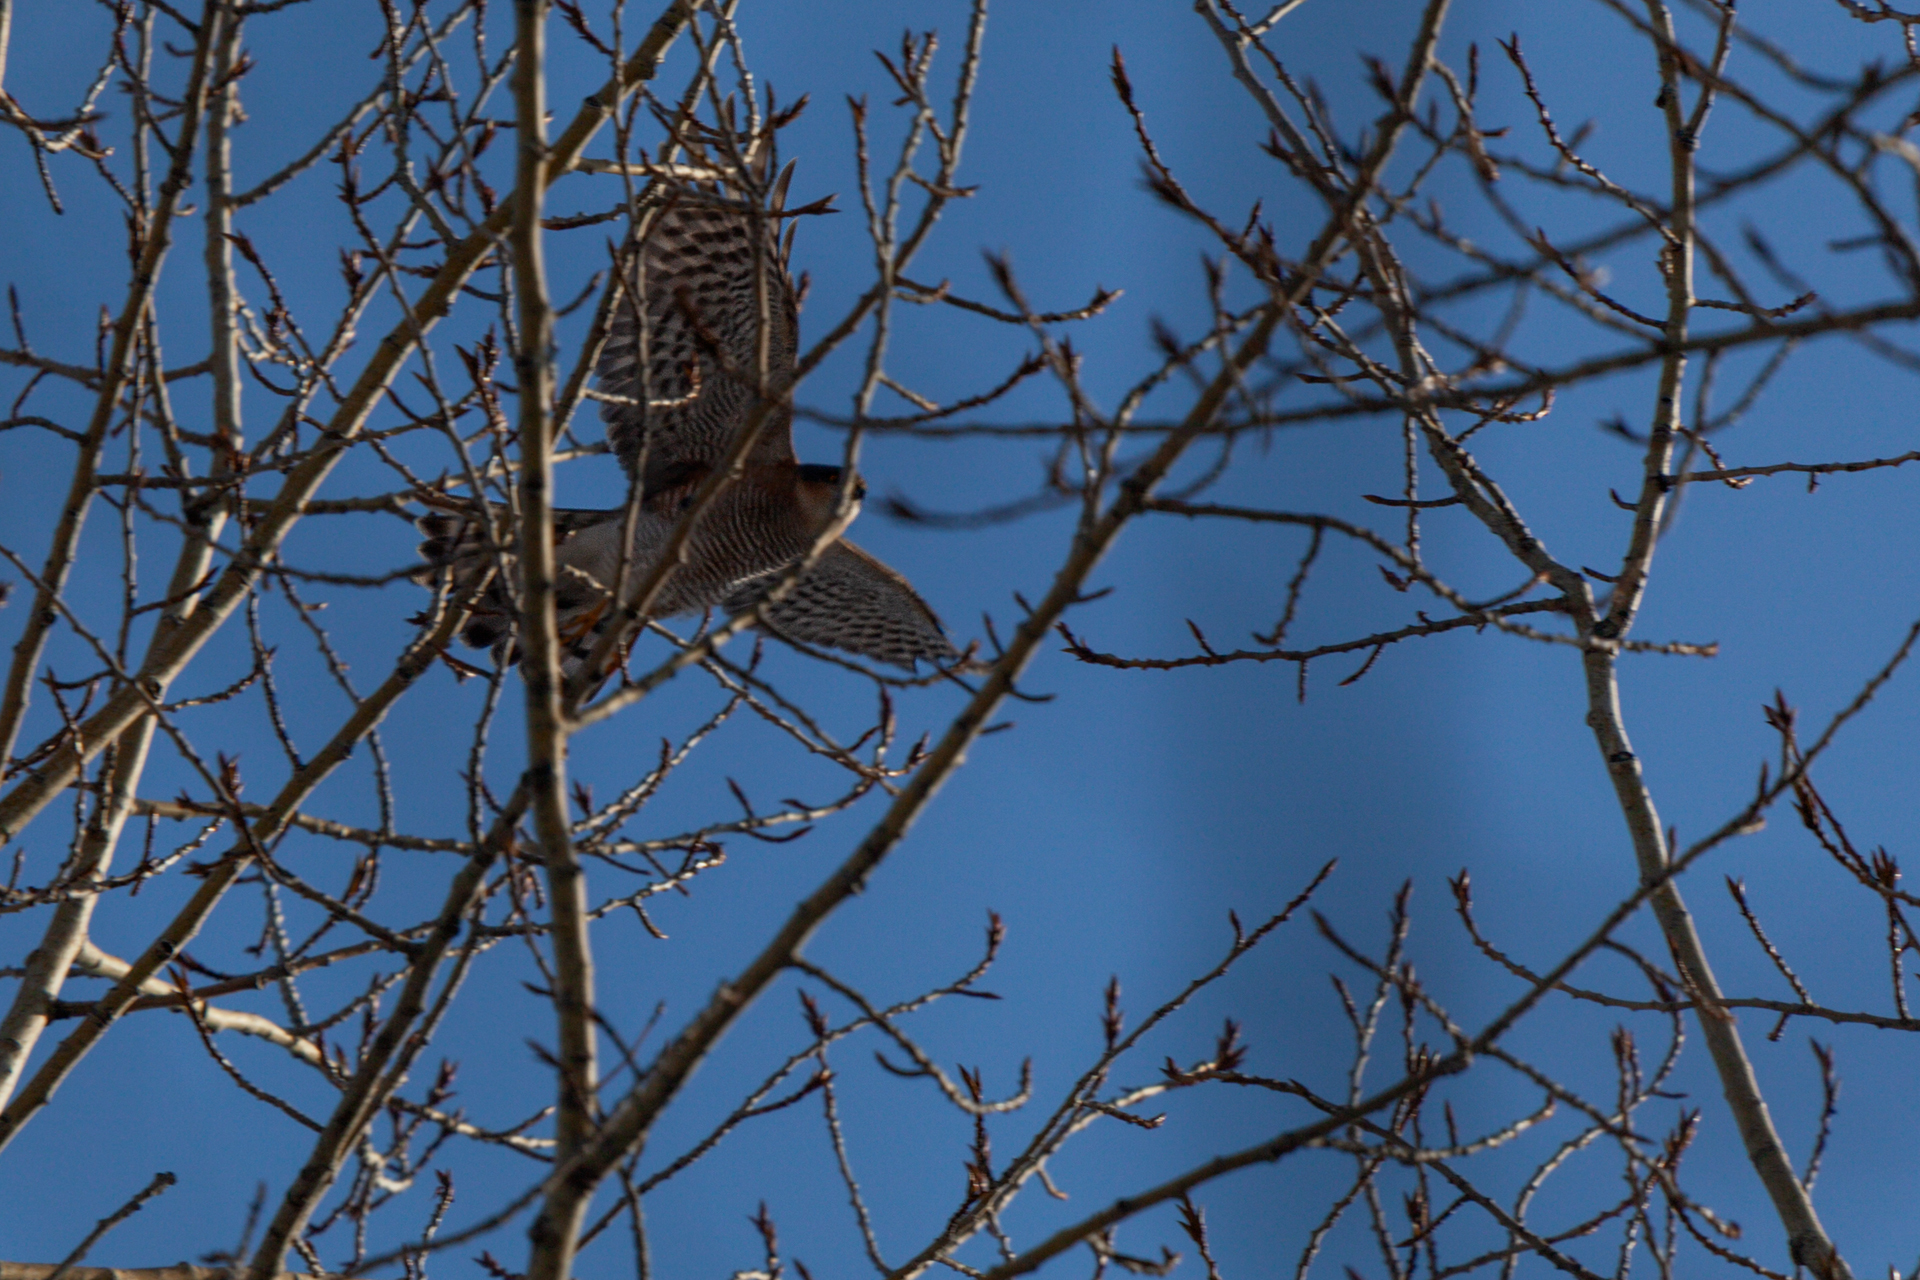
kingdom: Animalia
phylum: Chordata
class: Aves
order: Accipitriformes
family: Accipitridae
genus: Accipiter
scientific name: Accipiter nisus
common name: Eurasian sparrowhawk
